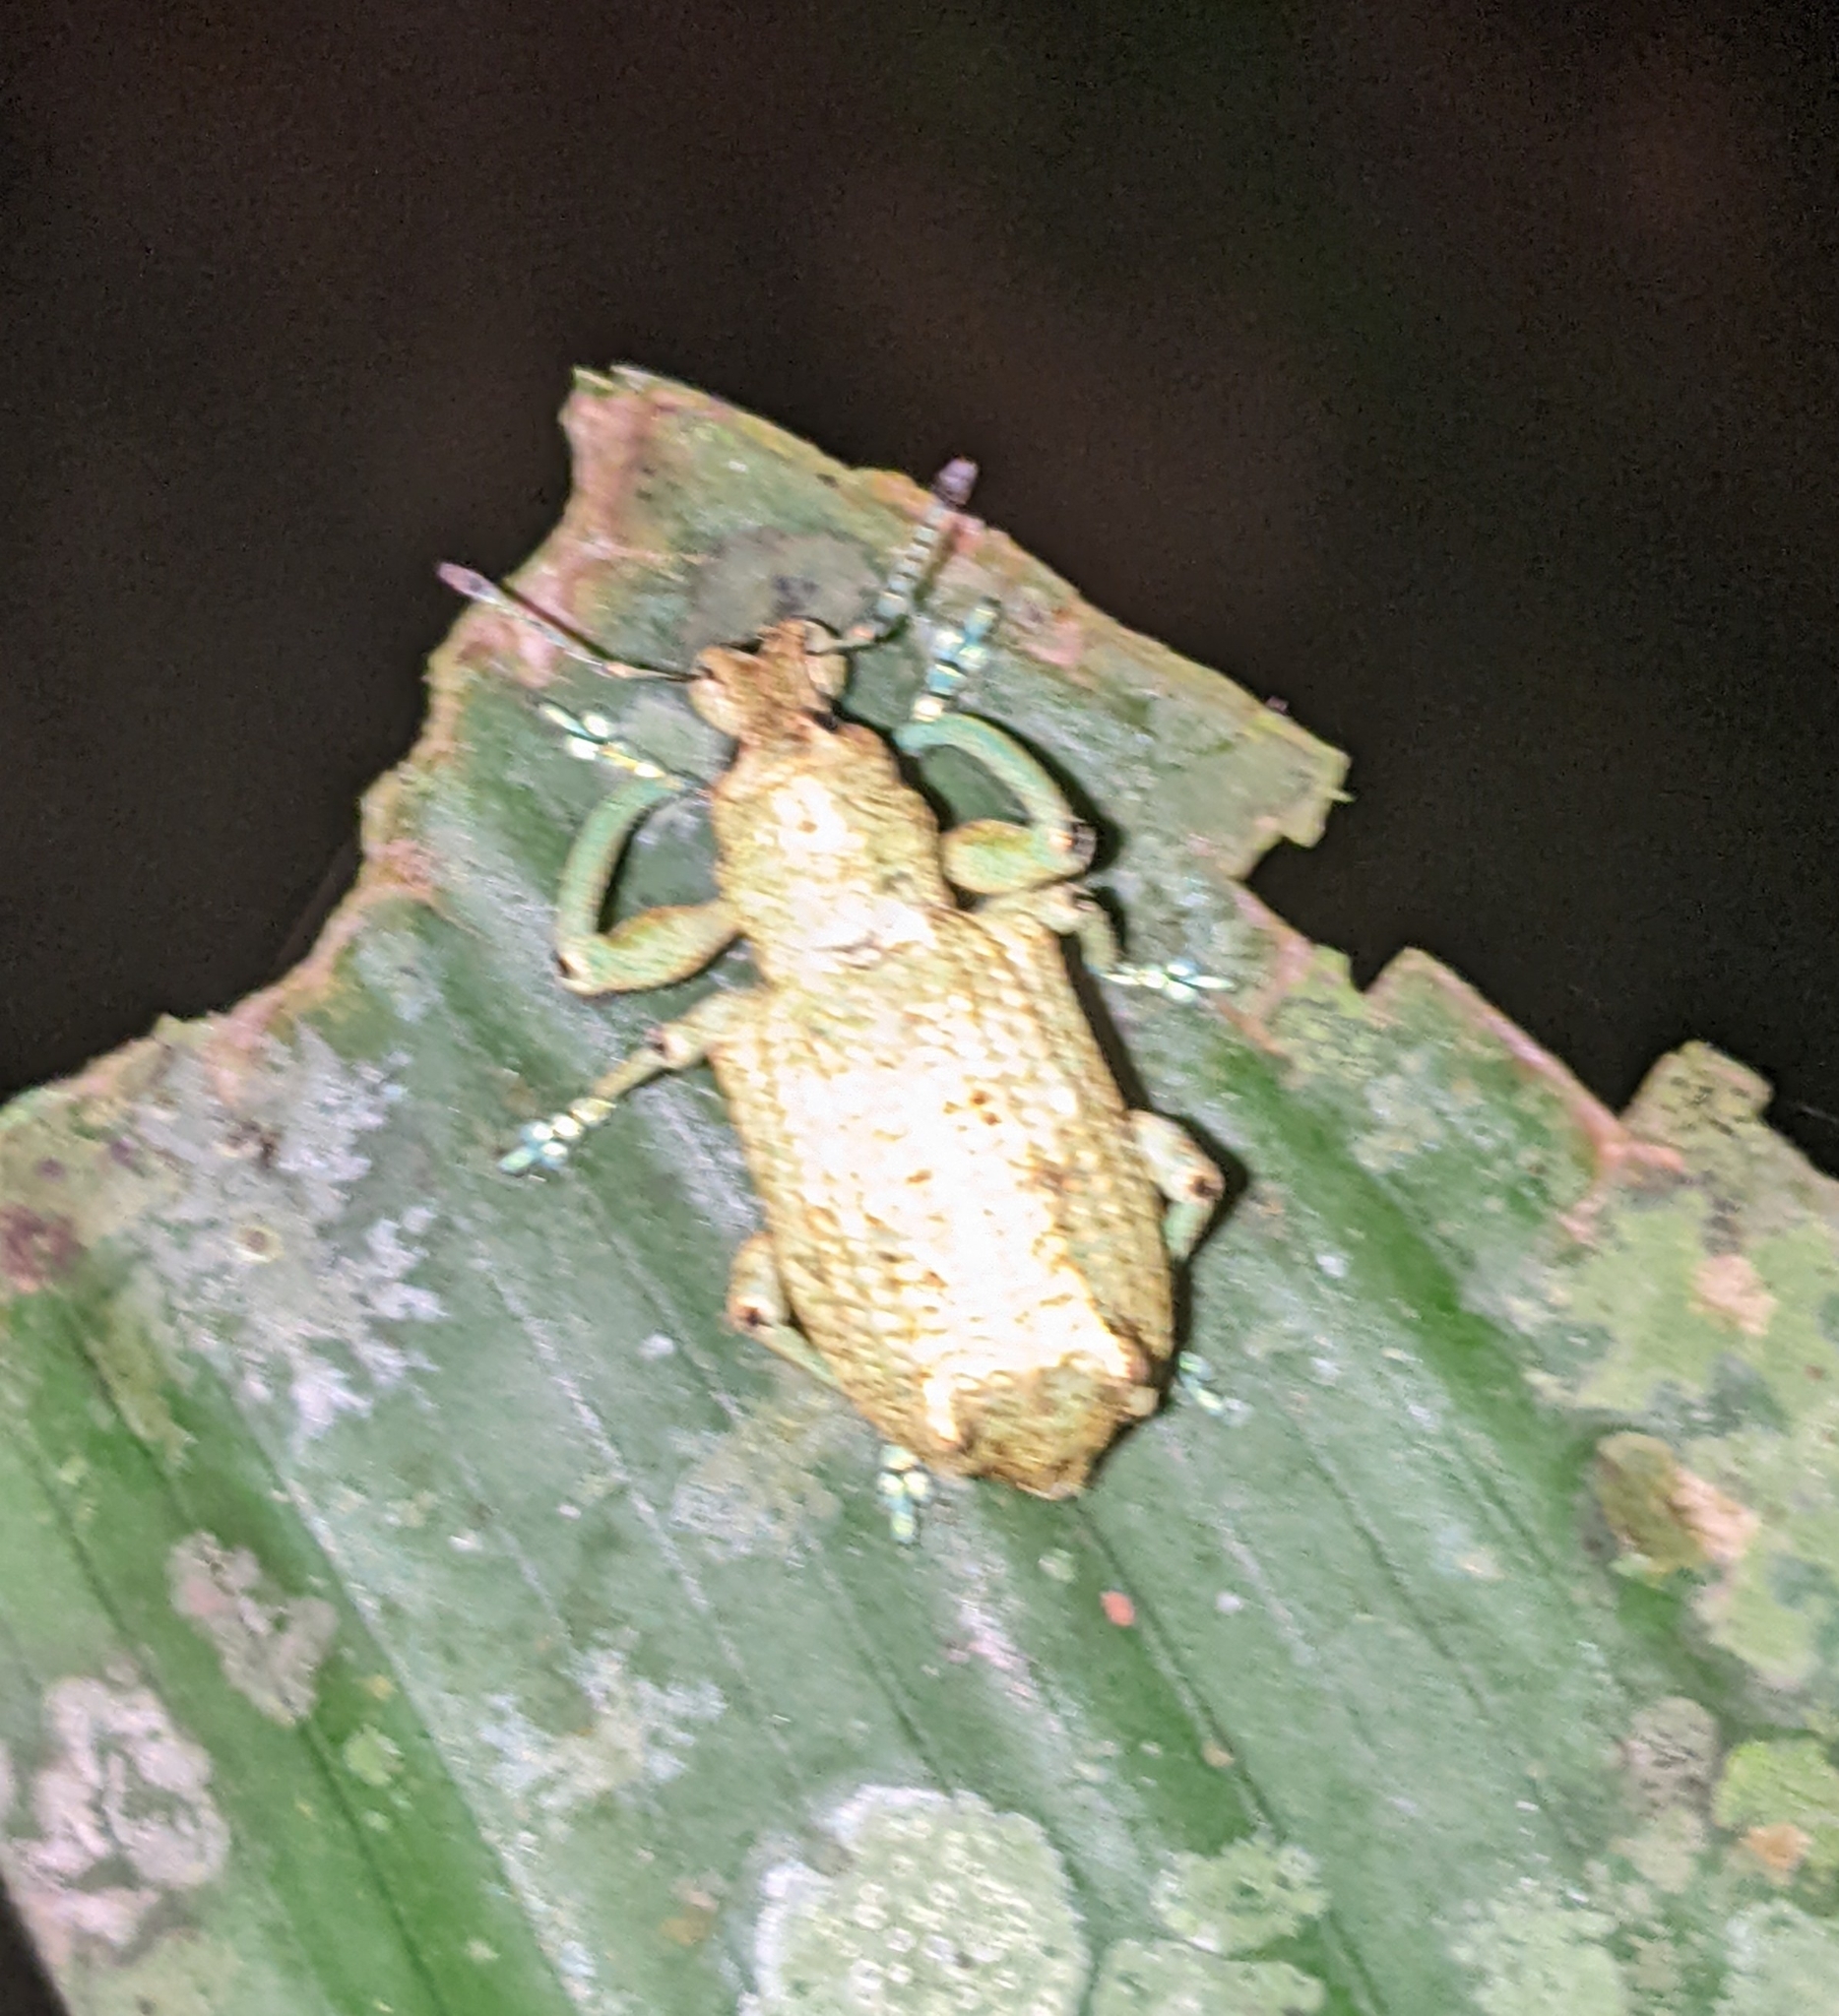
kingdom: Animalia
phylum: Arthropoda
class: Insecta
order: Coleoptera
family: Curculionidae
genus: Rhigus
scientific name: Rhigus speciosus
